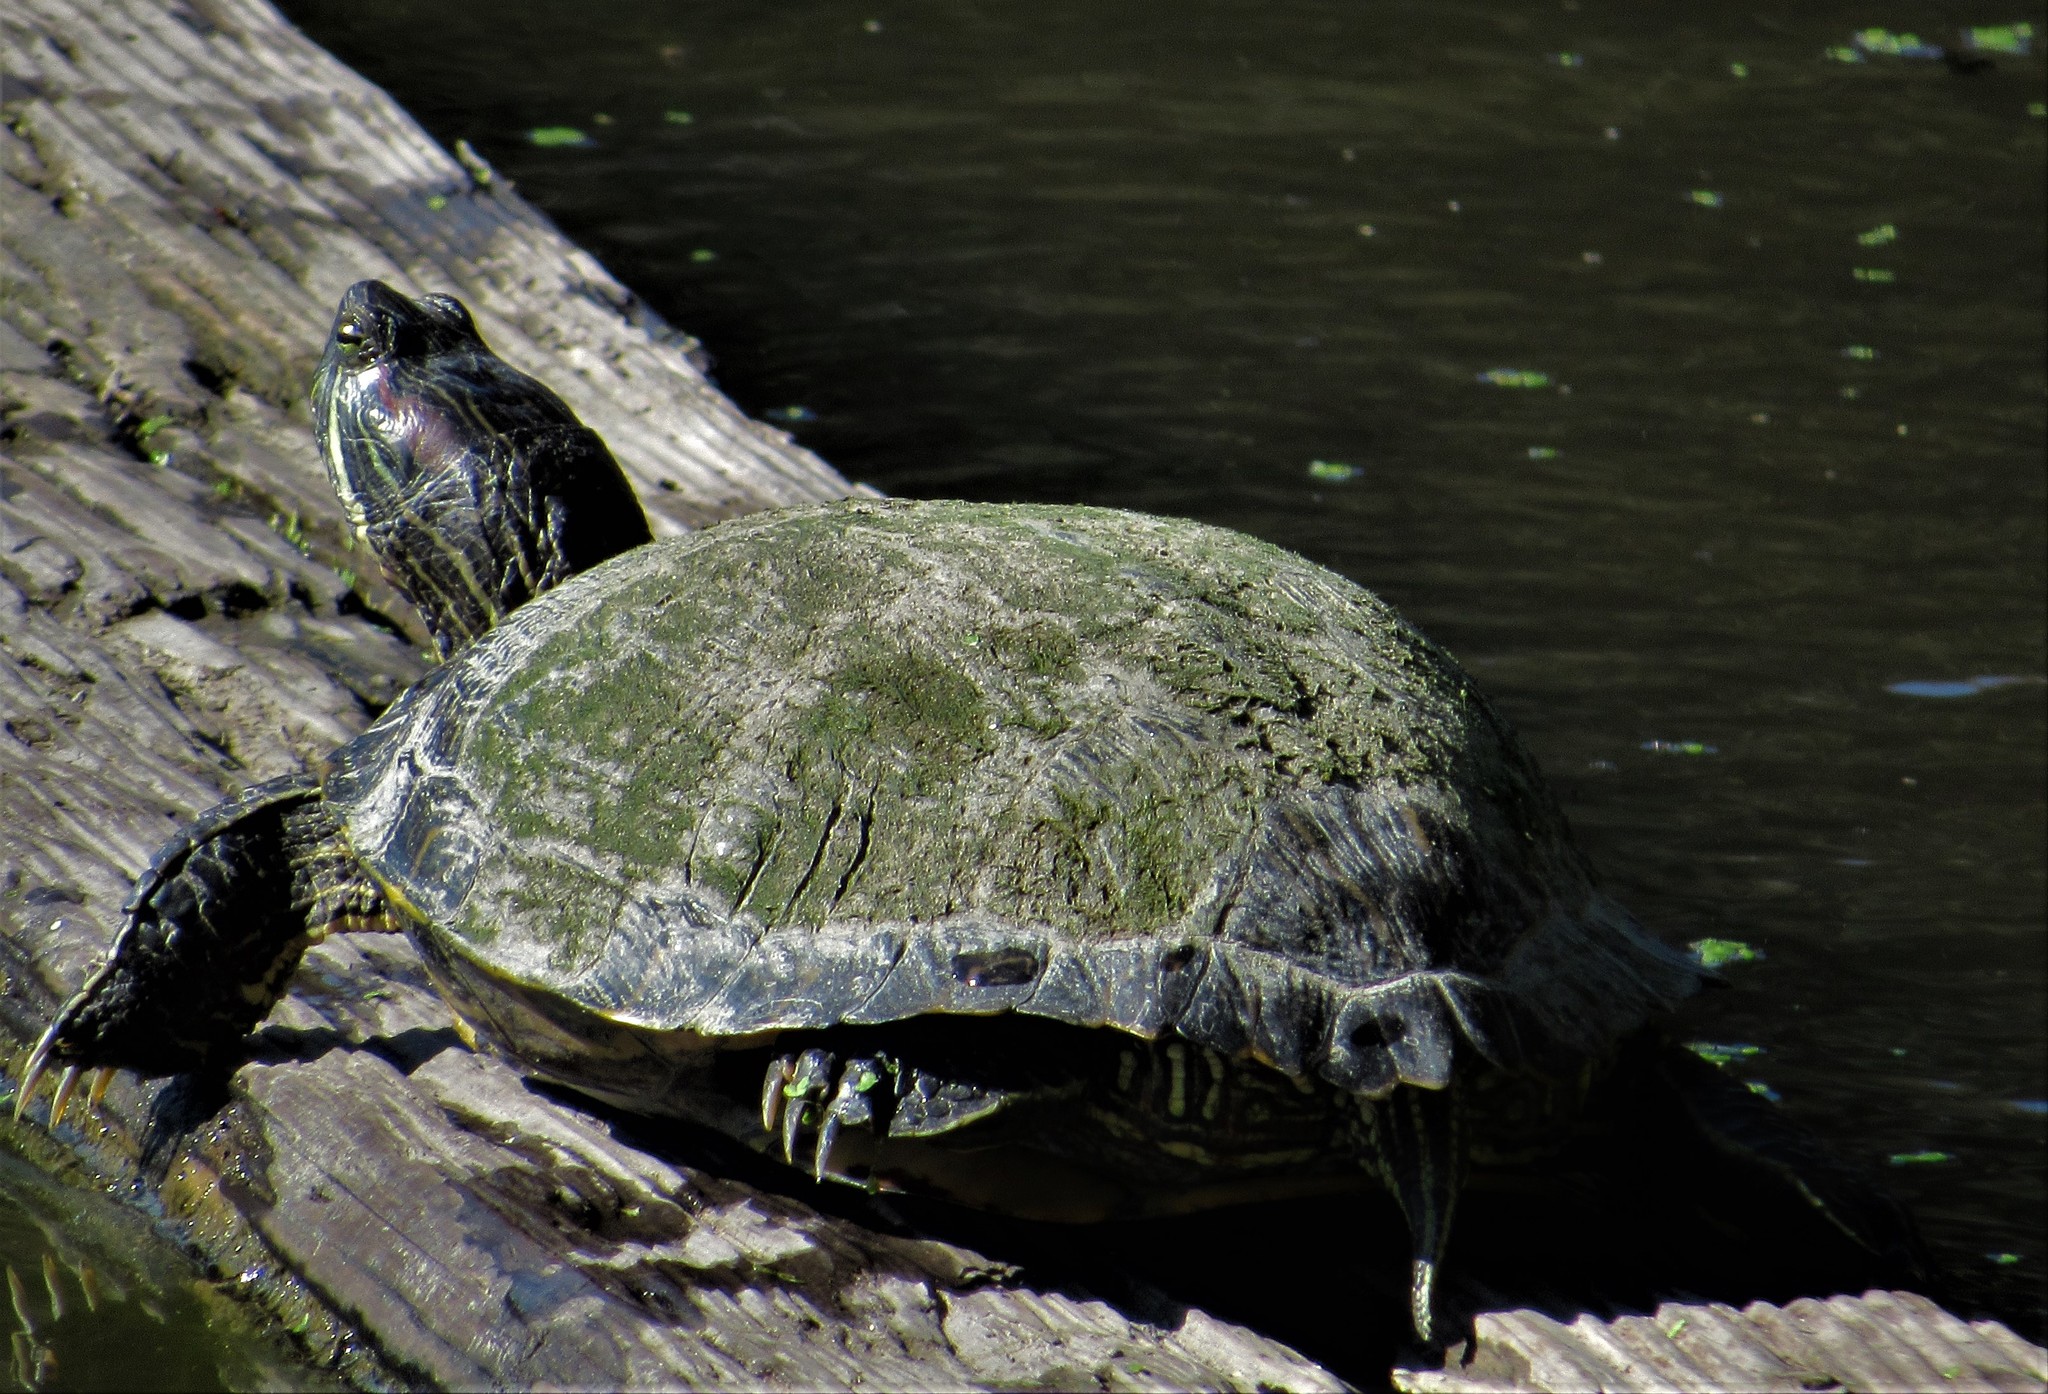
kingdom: Animalia
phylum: Chordata
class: Testudines
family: Emydidae
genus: Trachemys
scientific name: Trachemys scripta
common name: Slider
